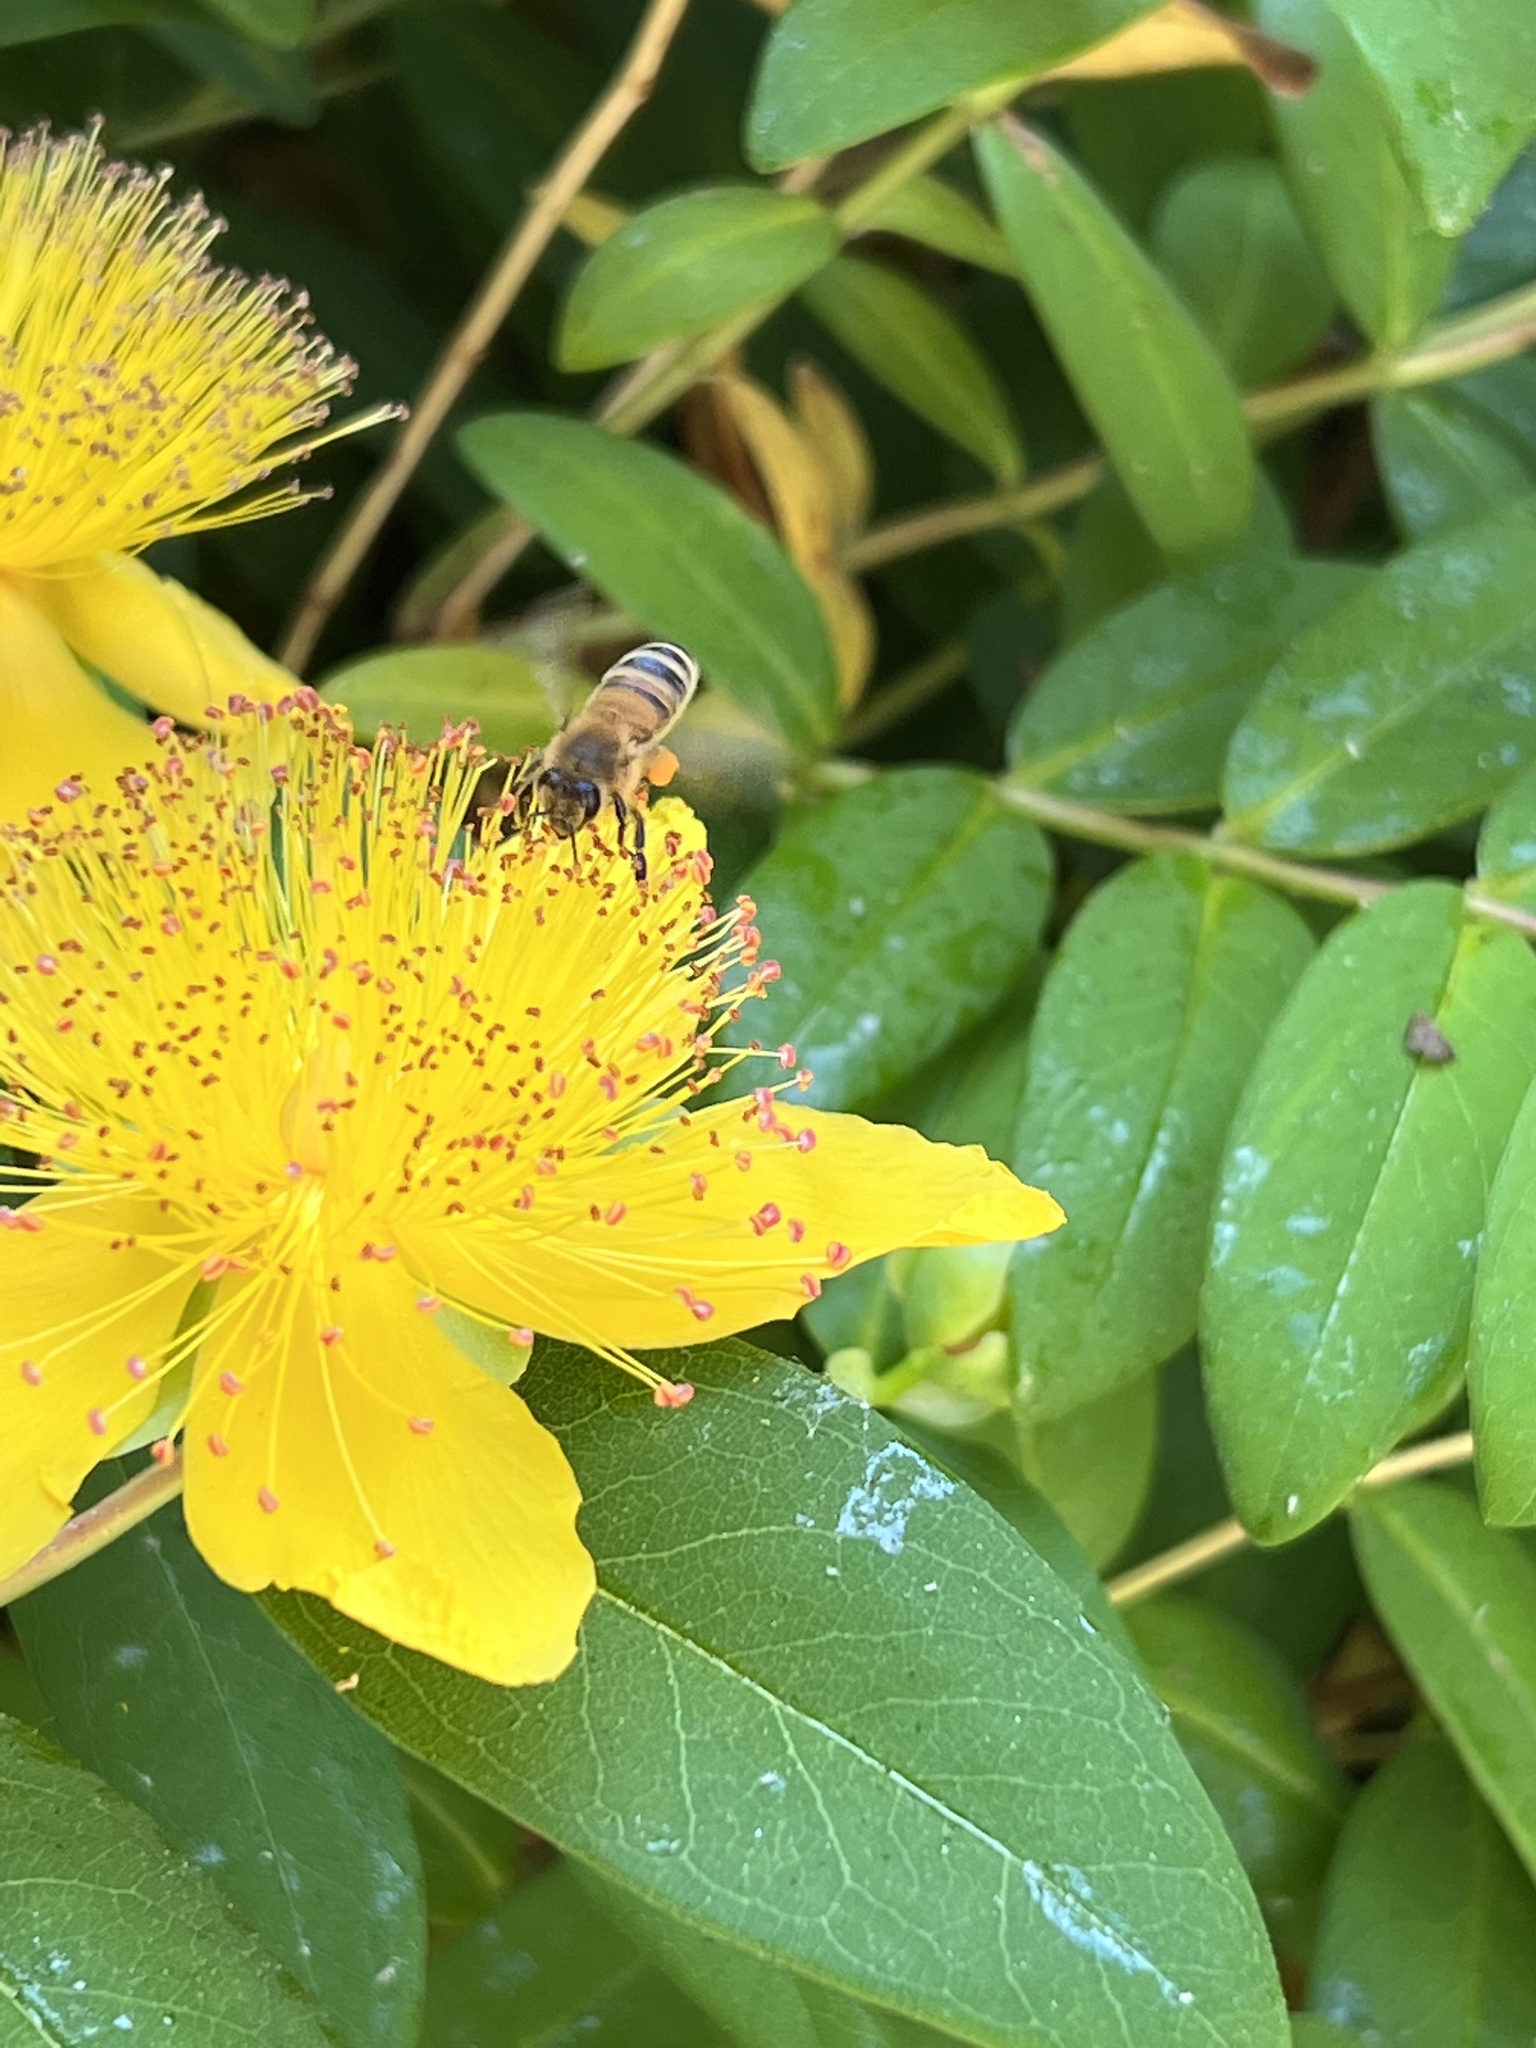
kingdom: Animalia
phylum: Arthropoda
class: Insecta
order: Hymenoptera
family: Apidae
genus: Apis
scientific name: Apis mellifera
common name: Honey bee
